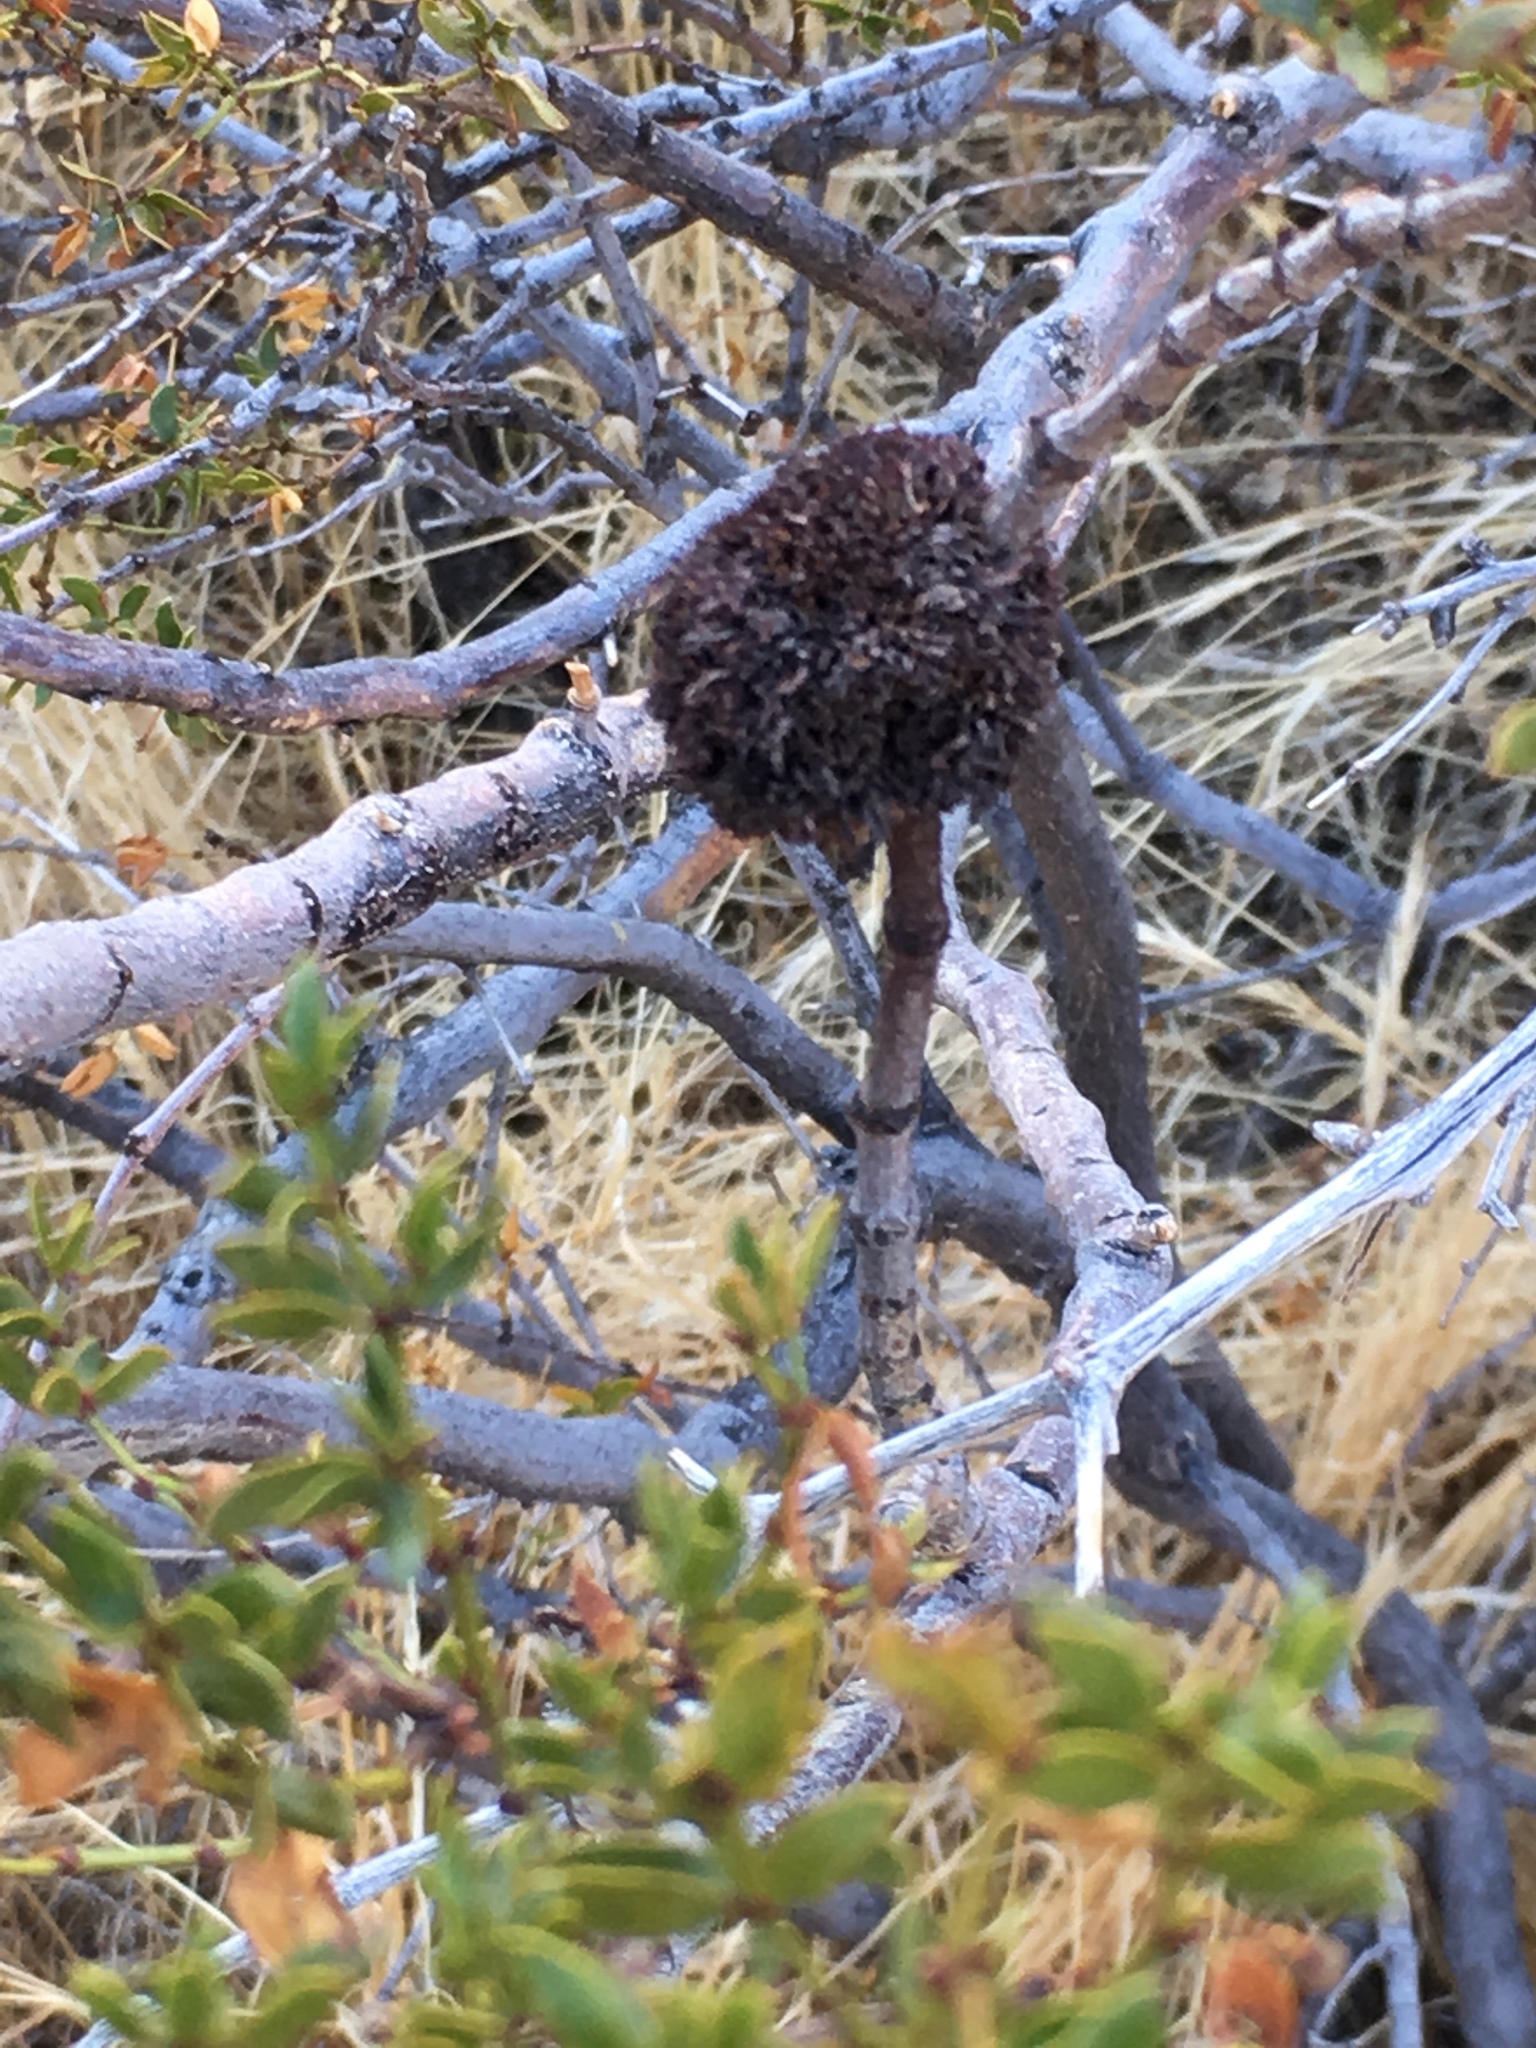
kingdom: Animalia
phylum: Arthropoda
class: Insecta
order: Diptera
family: Cecidomyiidae
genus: Asphondylia
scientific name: Asphondylia auripila
